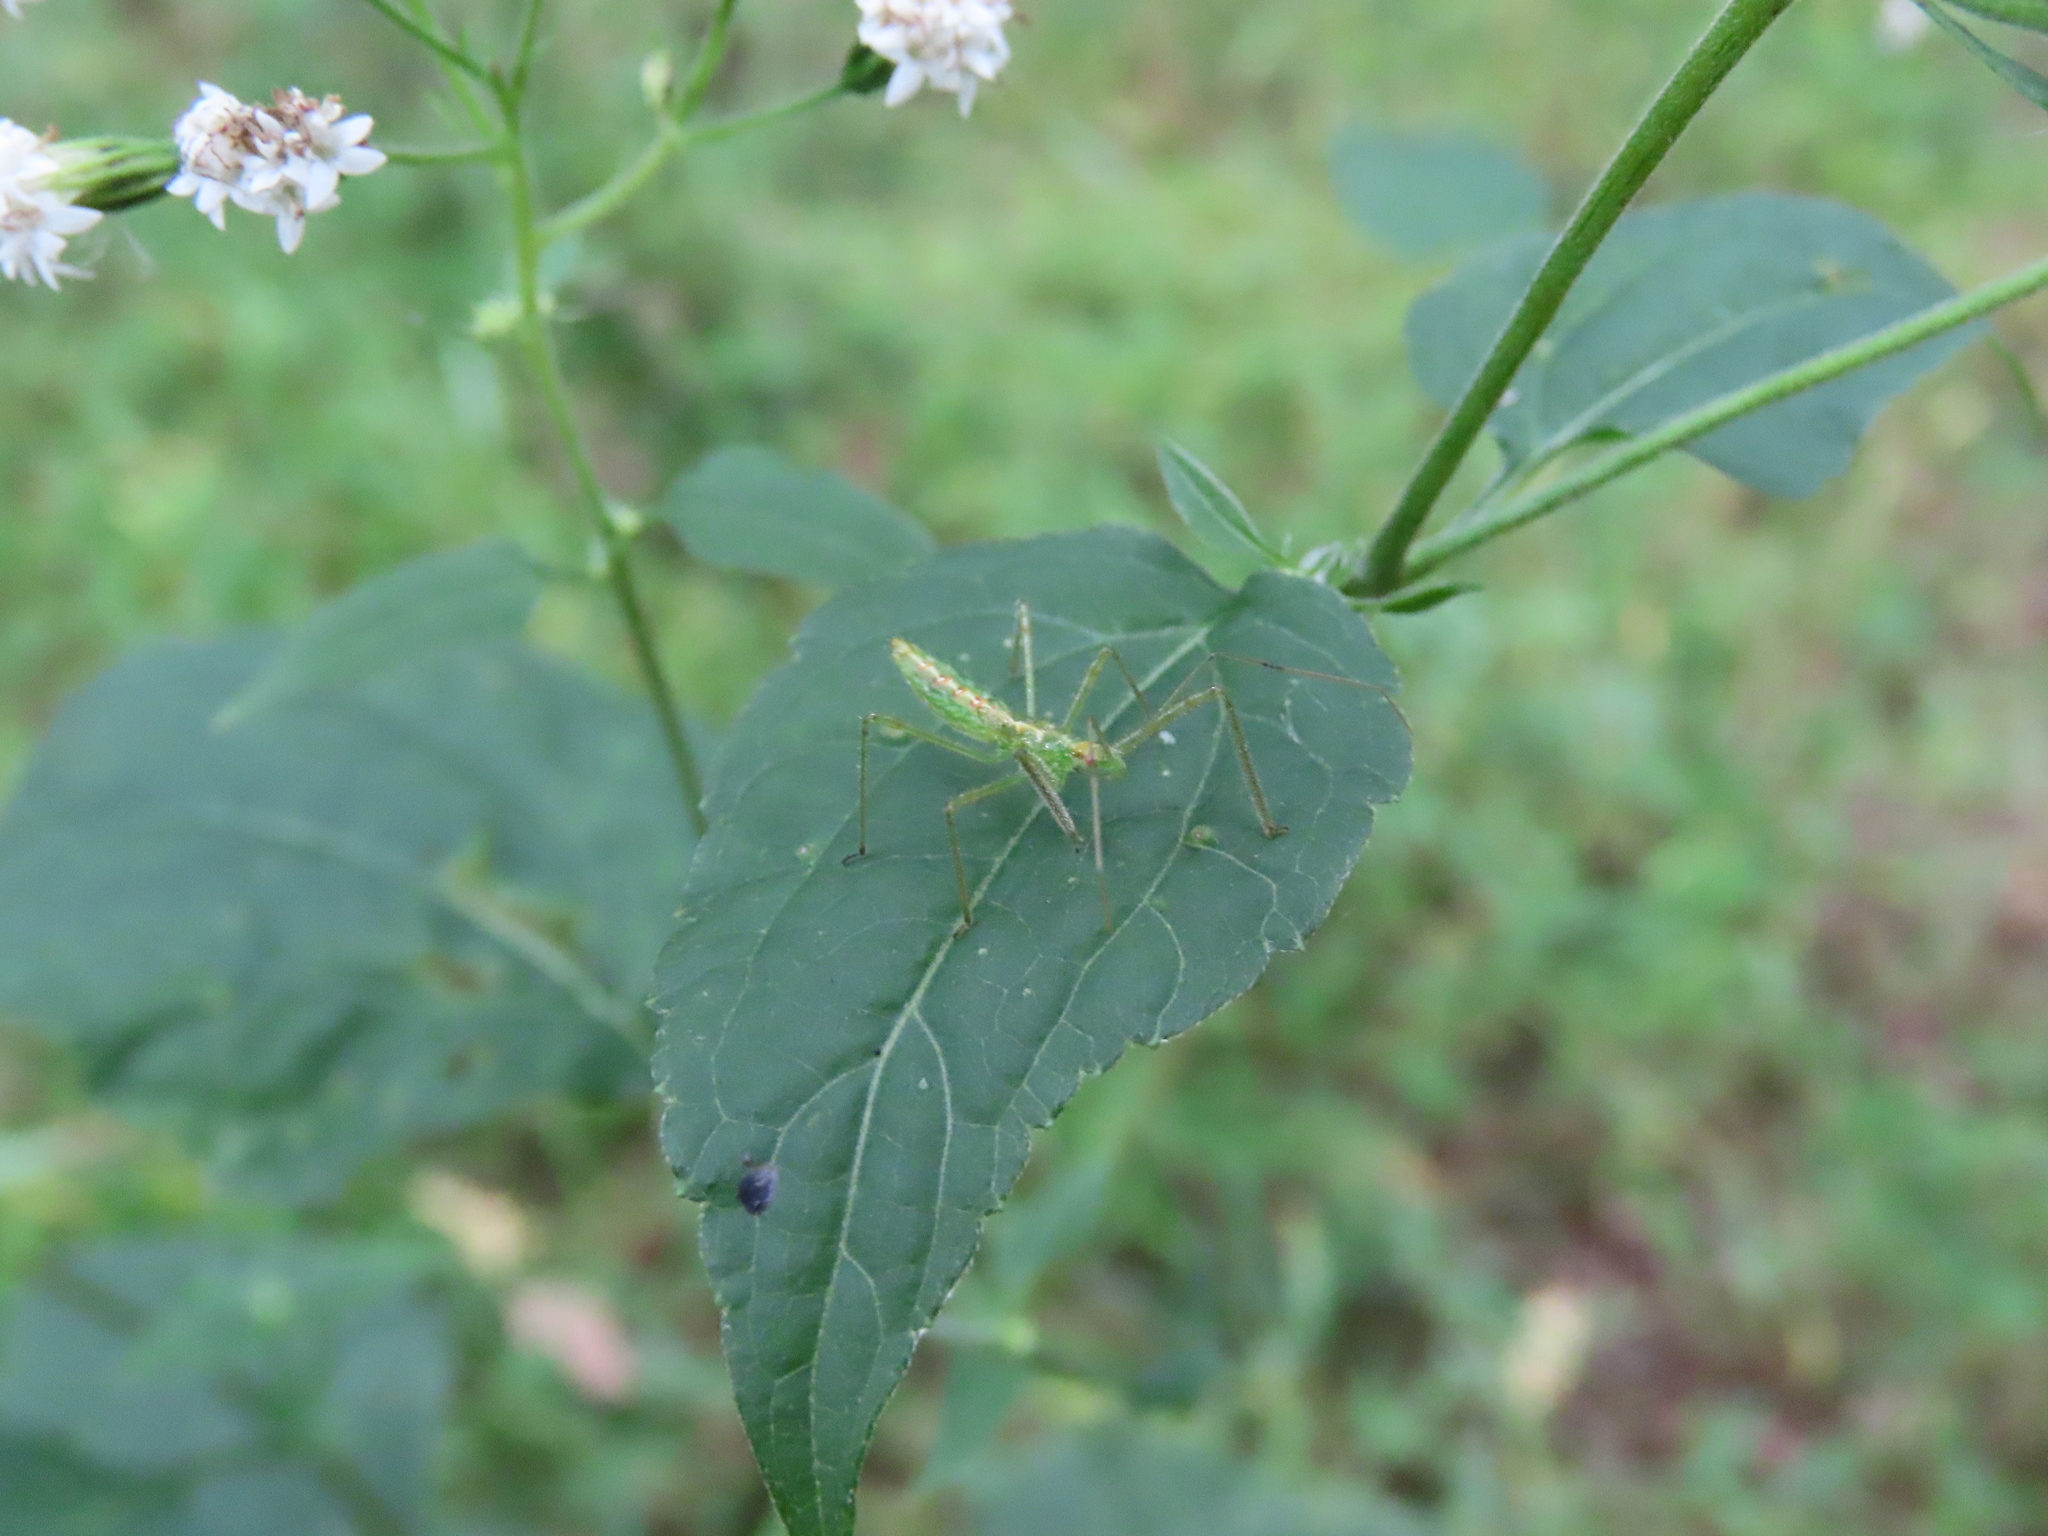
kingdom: Animalia
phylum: Arthropoda
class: Insecta
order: Hemiptera
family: Reduviidae
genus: Zelus
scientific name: Zelus luridus
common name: Pale green assassin bug
